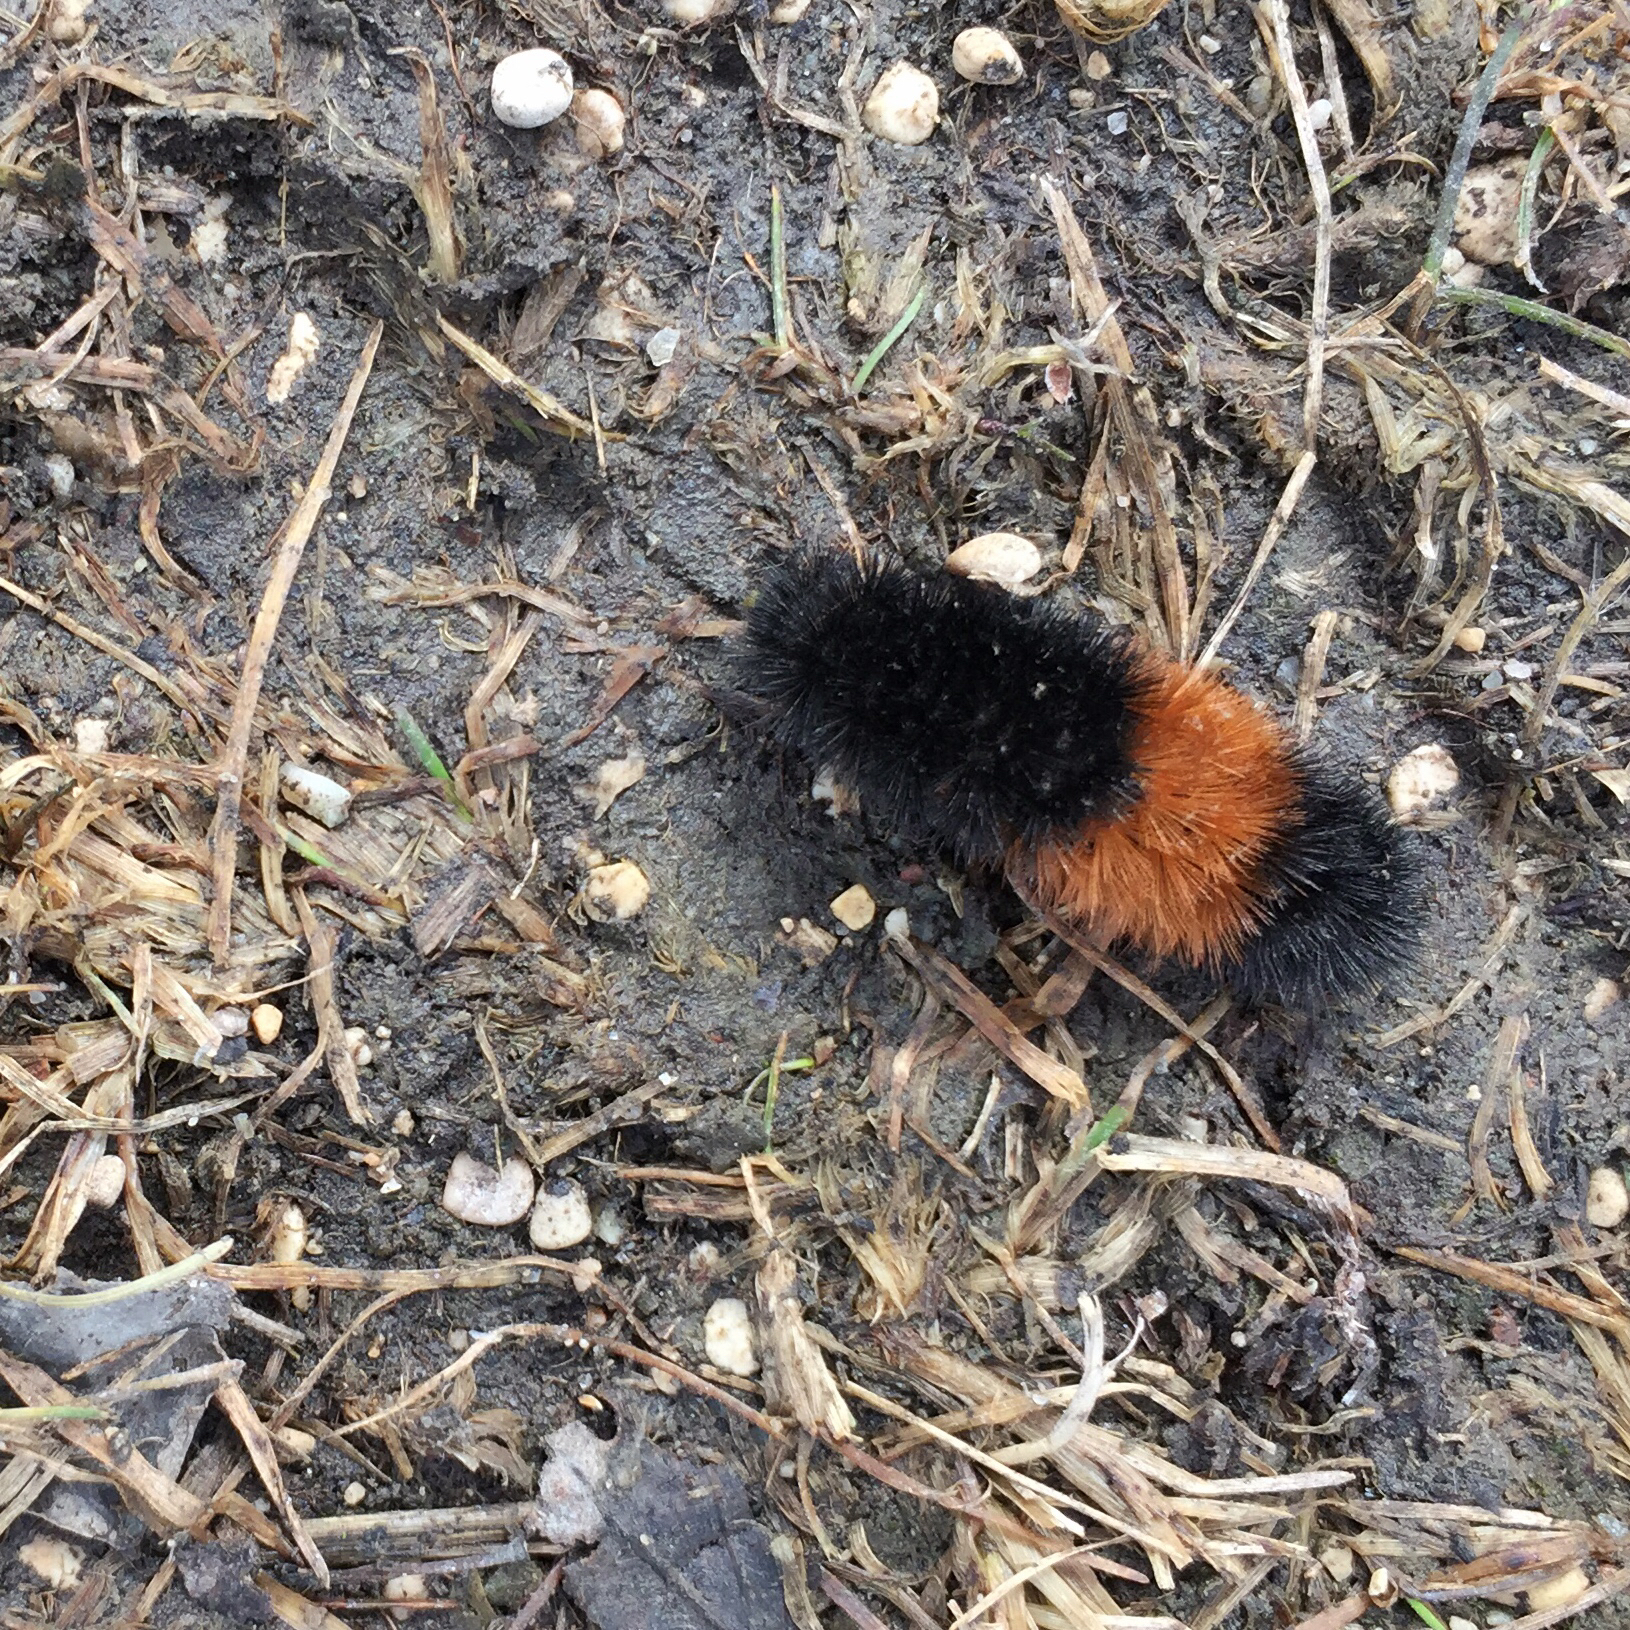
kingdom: Animalia
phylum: Arthropoda
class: Insecta
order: Lepidoptera
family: Erebidae
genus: Pyrrharctia
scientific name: Pyrrharctia isabella
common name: Isabella tiger moth
